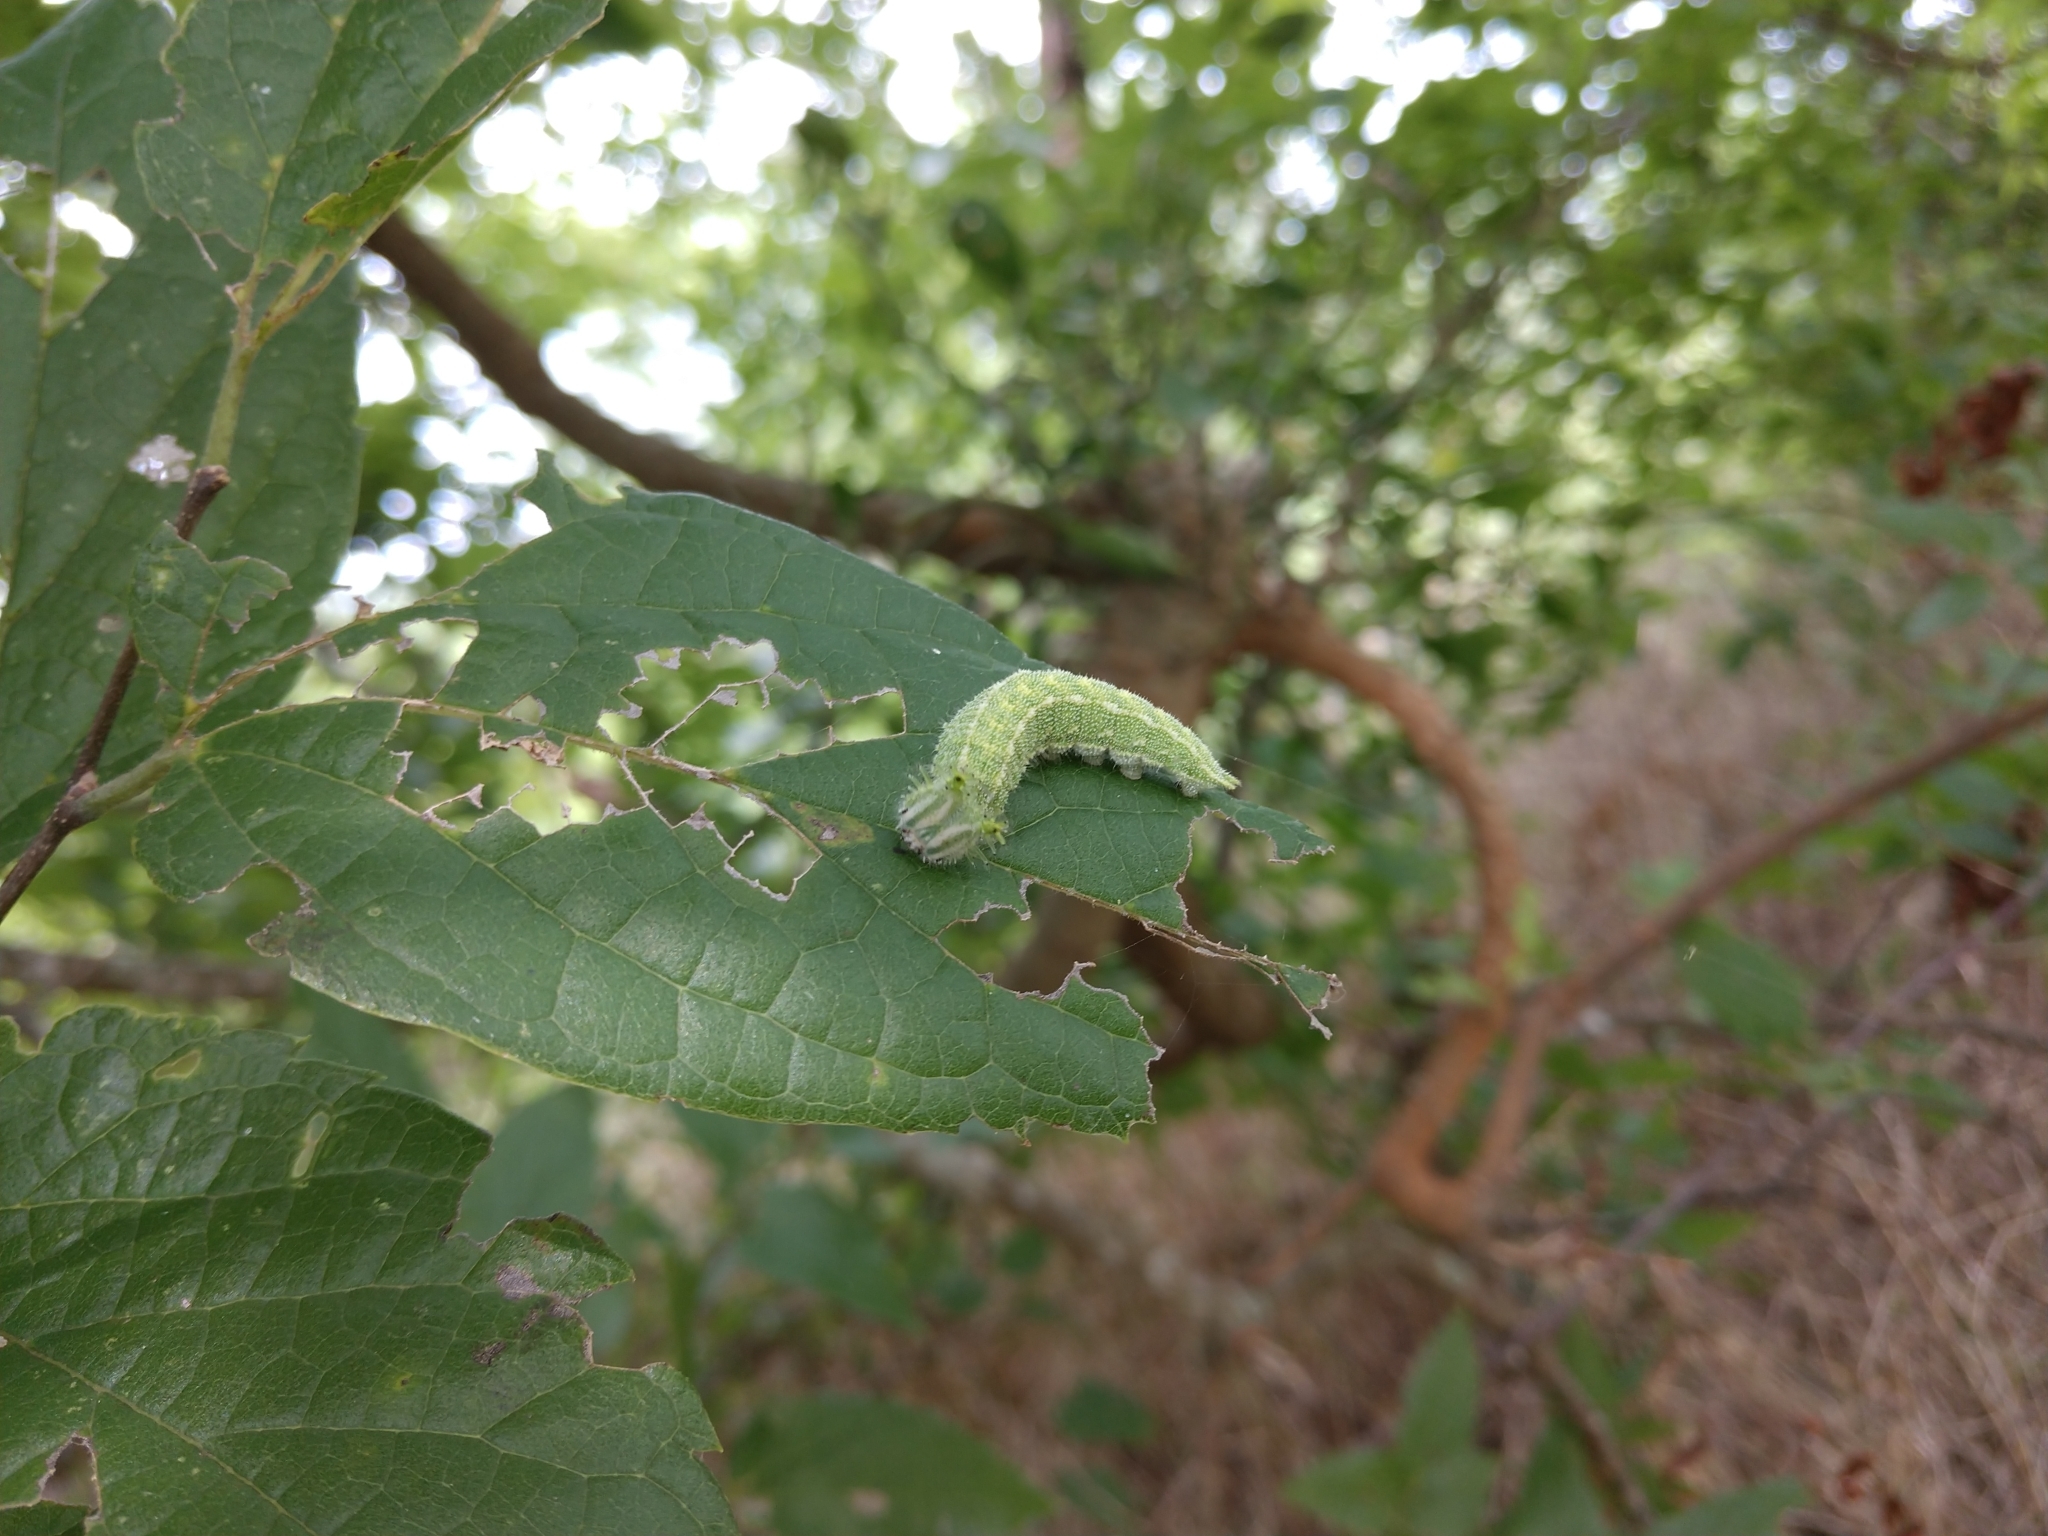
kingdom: Animalia
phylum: Arthropoda
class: Insecta
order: Lepidoptera
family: Nymphalidae
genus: Asterocampa
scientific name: Asterocampa clyton
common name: Tawny emperor
